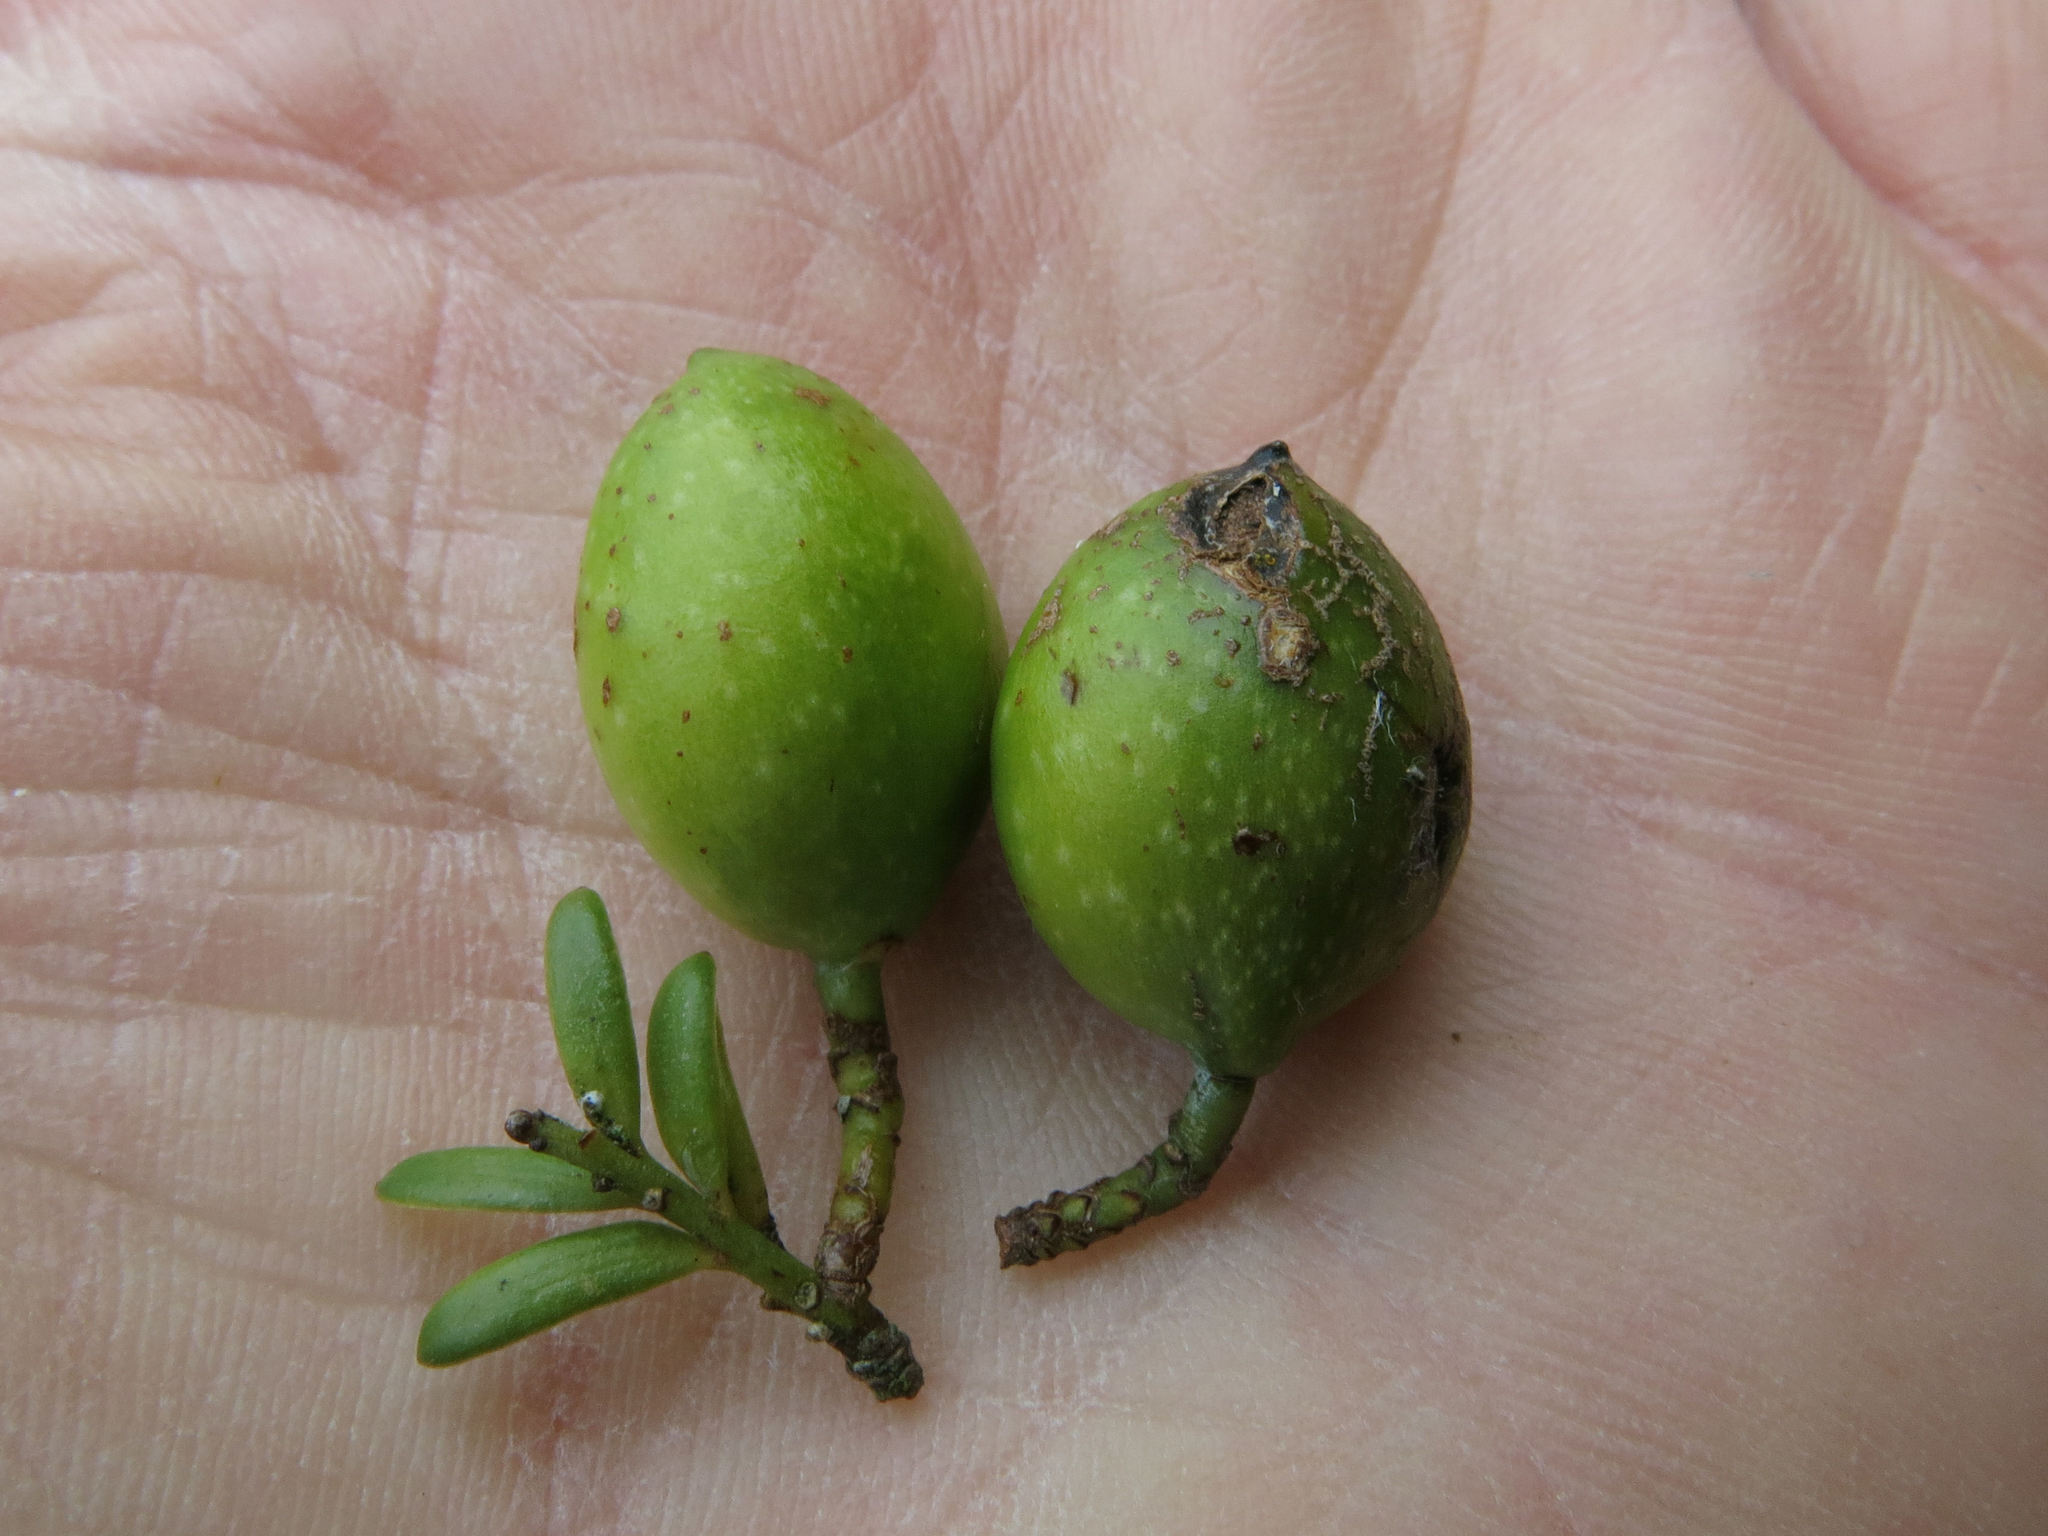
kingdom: Plantae
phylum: Tracheophyta
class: Pinopsida
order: Pinales
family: Podocarpaceae
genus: Prumnopitys
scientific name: Prumnopitys ferruginea
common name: Brown pine
